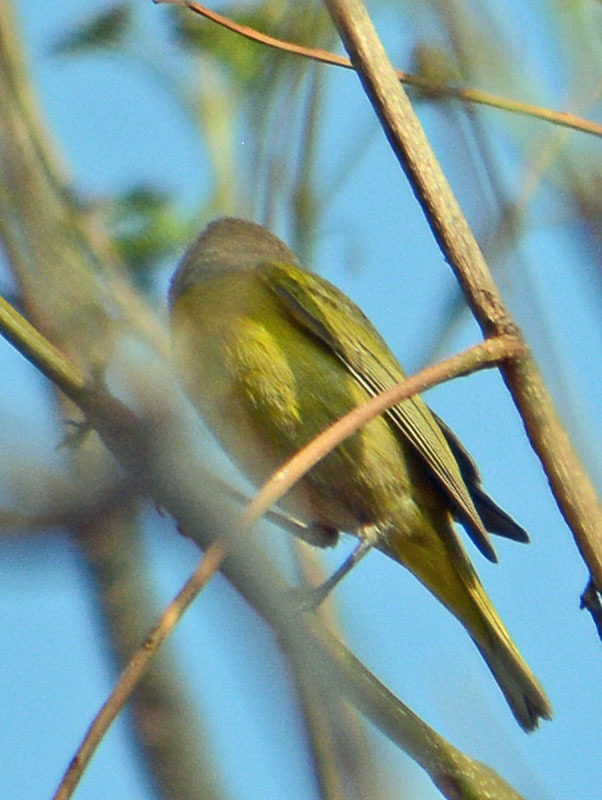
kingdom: Animalia
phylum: Chordata
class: Aves
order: Passeriformes
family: Parulidae
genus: Leiothlypis
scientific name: Leiothlypis ruficapilla
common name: Nashville warbler
